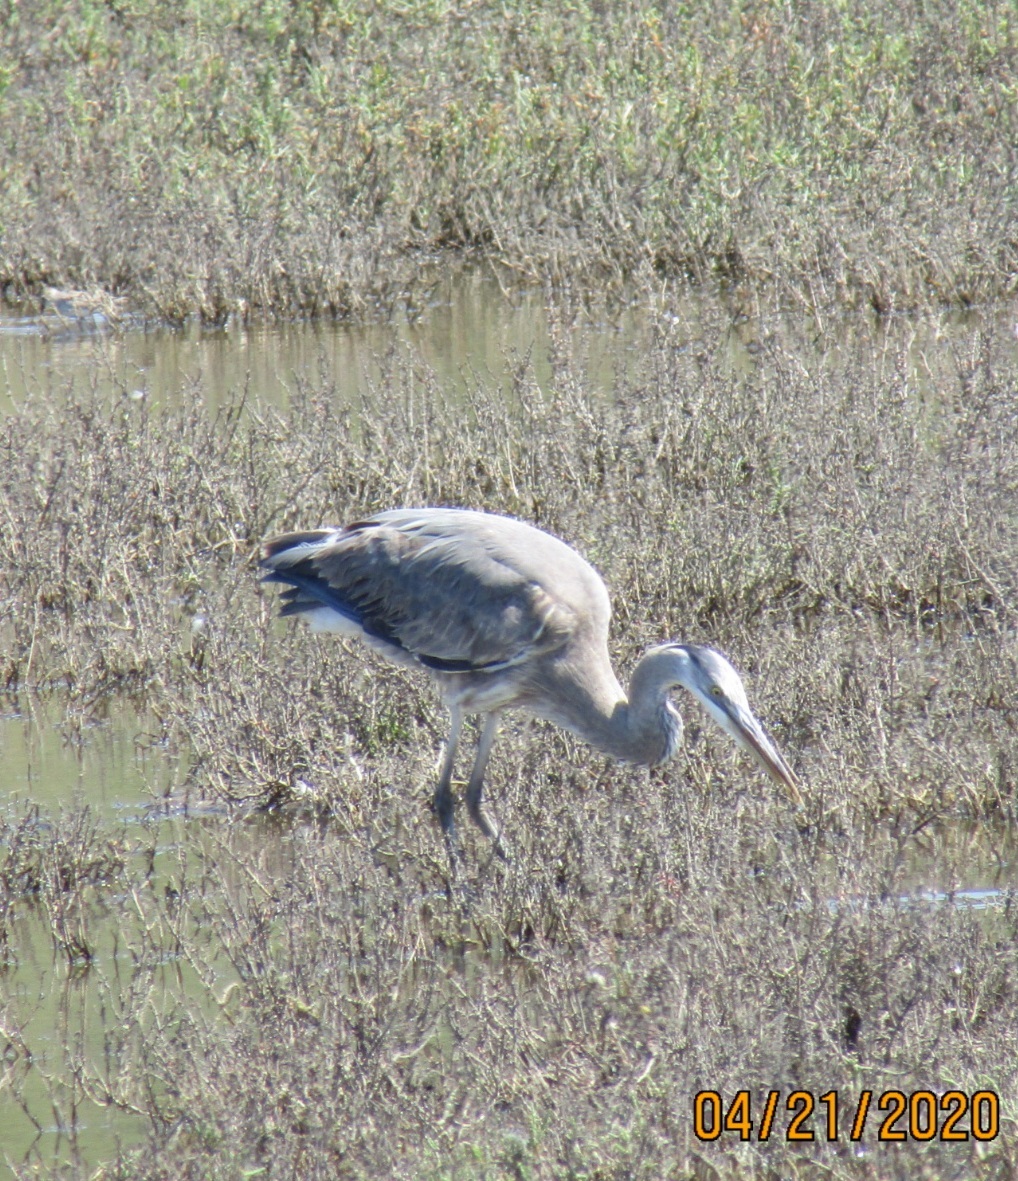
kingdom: Animalia
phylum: Chordata
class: Aves
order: Pelecaniformes
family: Ardeidae
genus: Ardea
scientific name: Ardea herodias
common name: Great blue heron
